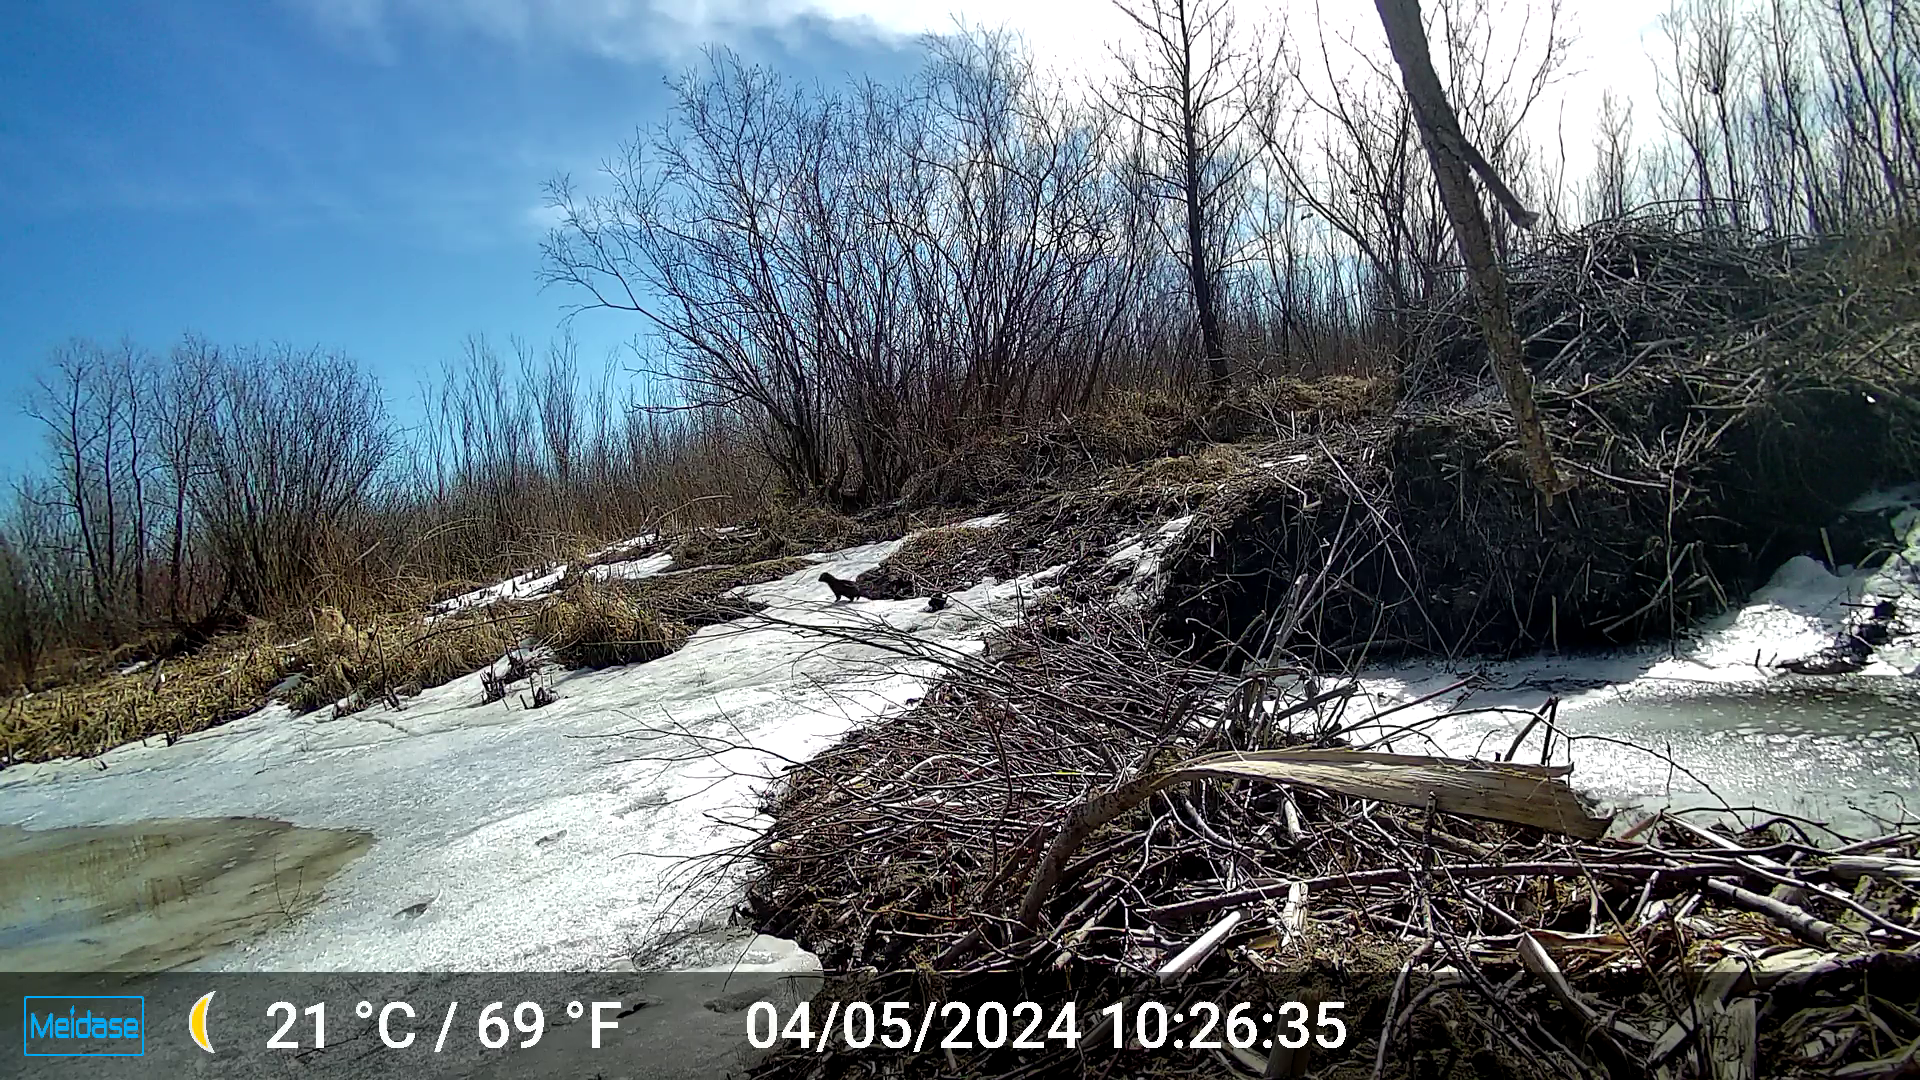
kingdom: Animalia
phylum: Chordata
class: Mammalia
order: Carnivora
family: Mustelidae
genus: Mustela
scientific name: Mustela
